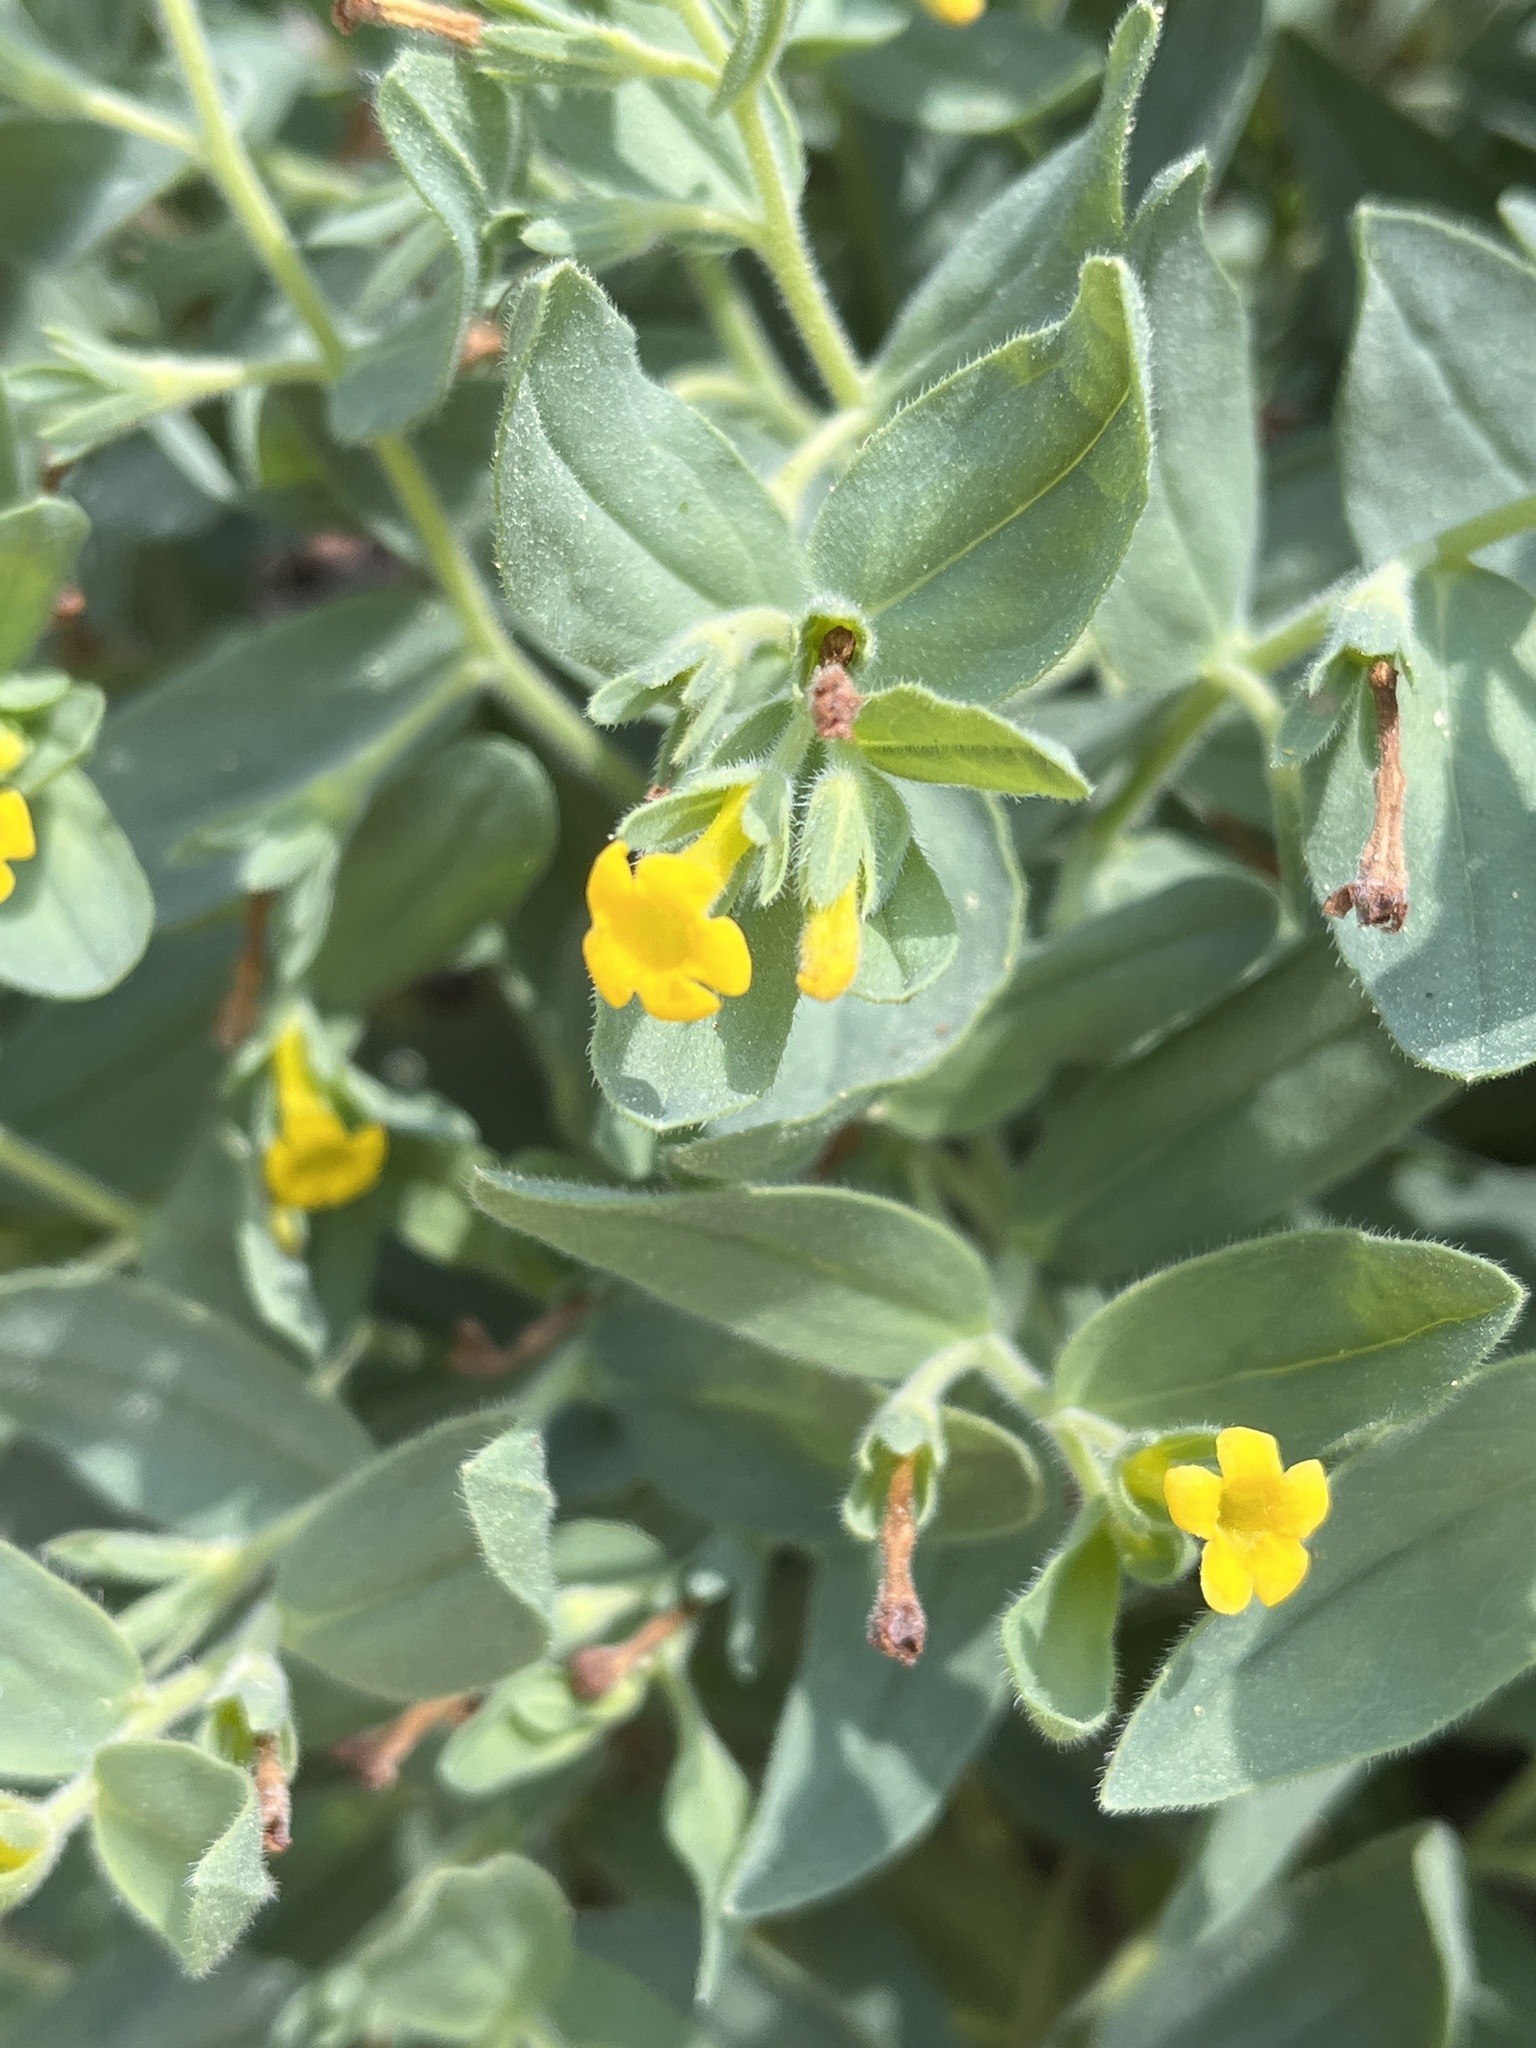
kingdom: Plantae
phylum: Tracheophyta
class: Magnoliopsida
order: Boraginales
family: Boraginaceae
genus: Lithospermum
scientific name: Lithospermum californicum
